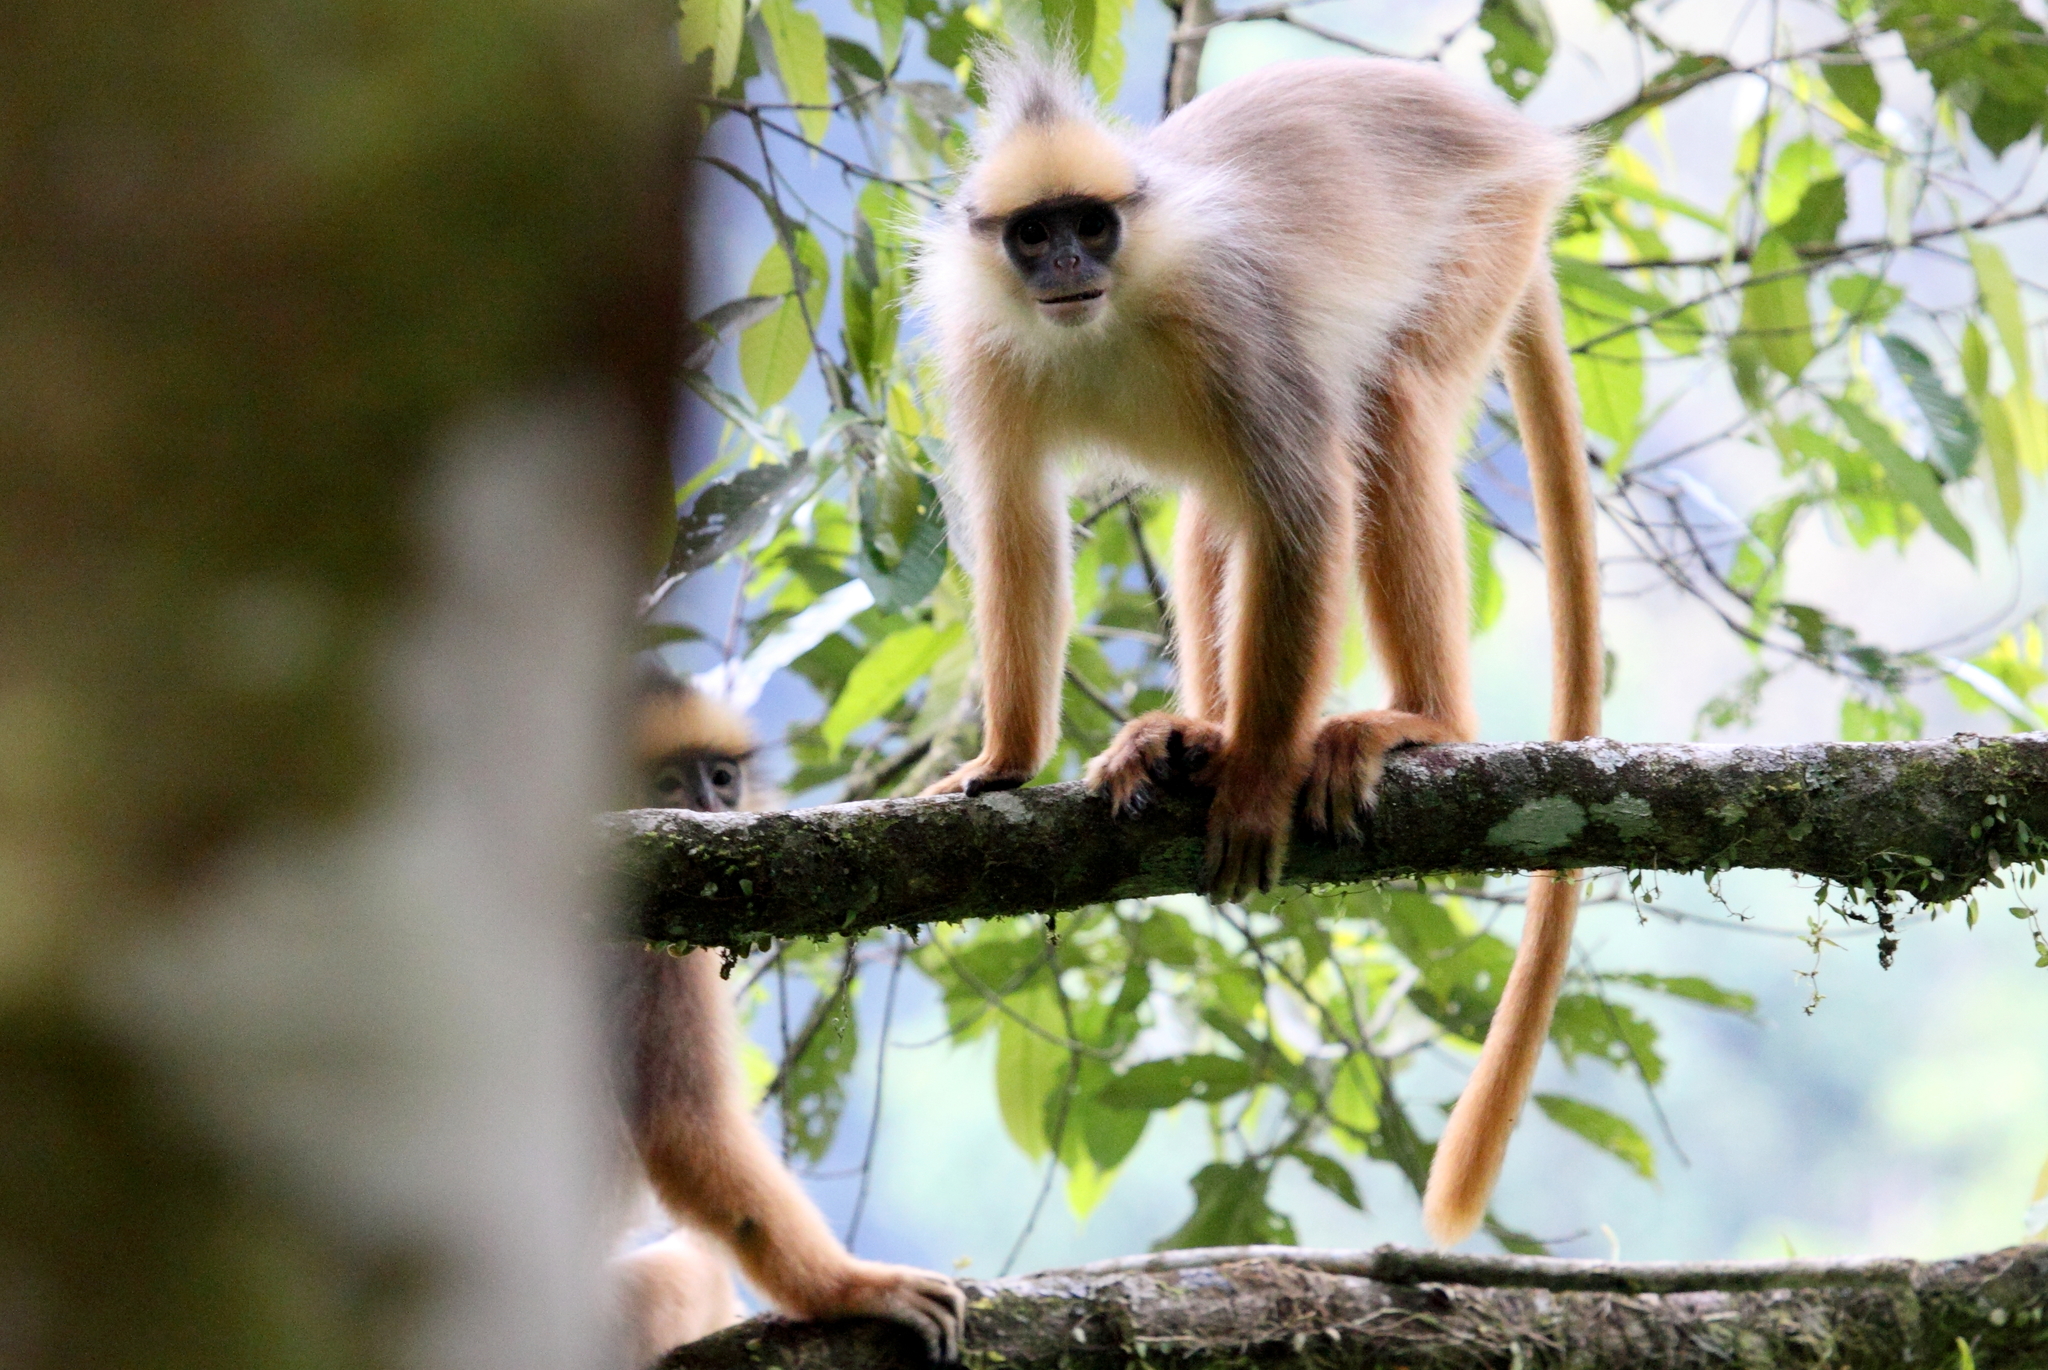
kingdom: Animalia
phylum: Chordata
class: Mammalia
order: Primates
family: Cercopithecidae
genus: Presbytis
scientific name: Presbytis melalophos
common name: Sumatran surili
